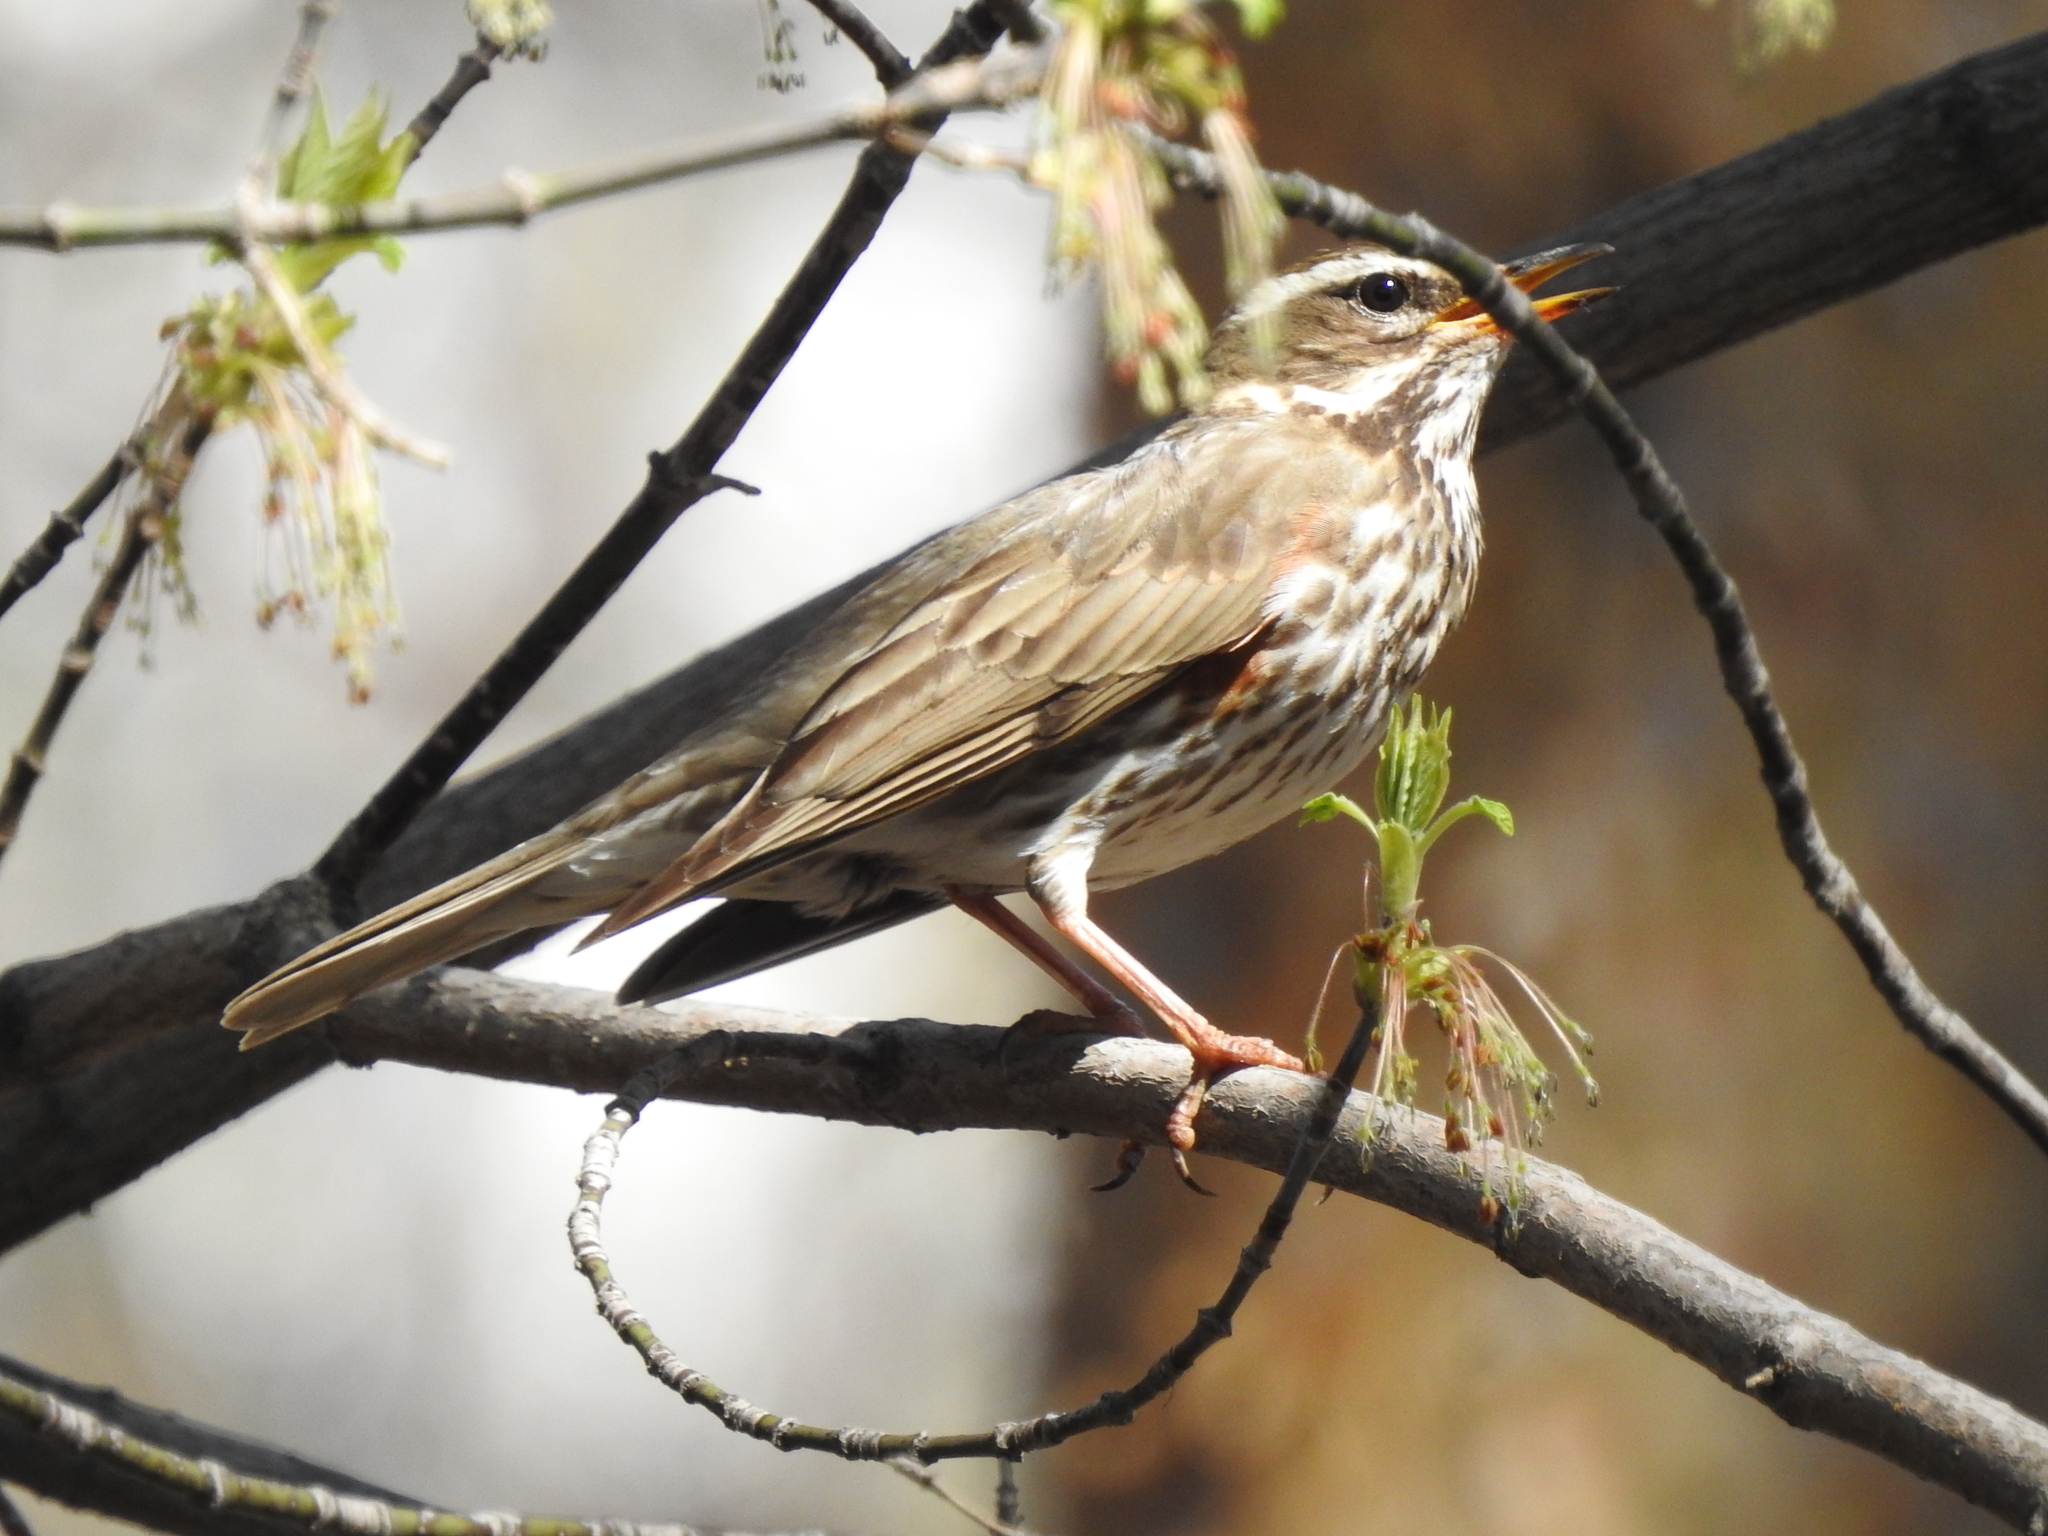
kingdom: Animalia
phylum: Chordata
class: Aves
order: Passeriformes
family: Turdidae
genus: Turdus
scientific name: Turdus iliacus
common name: Redwing
